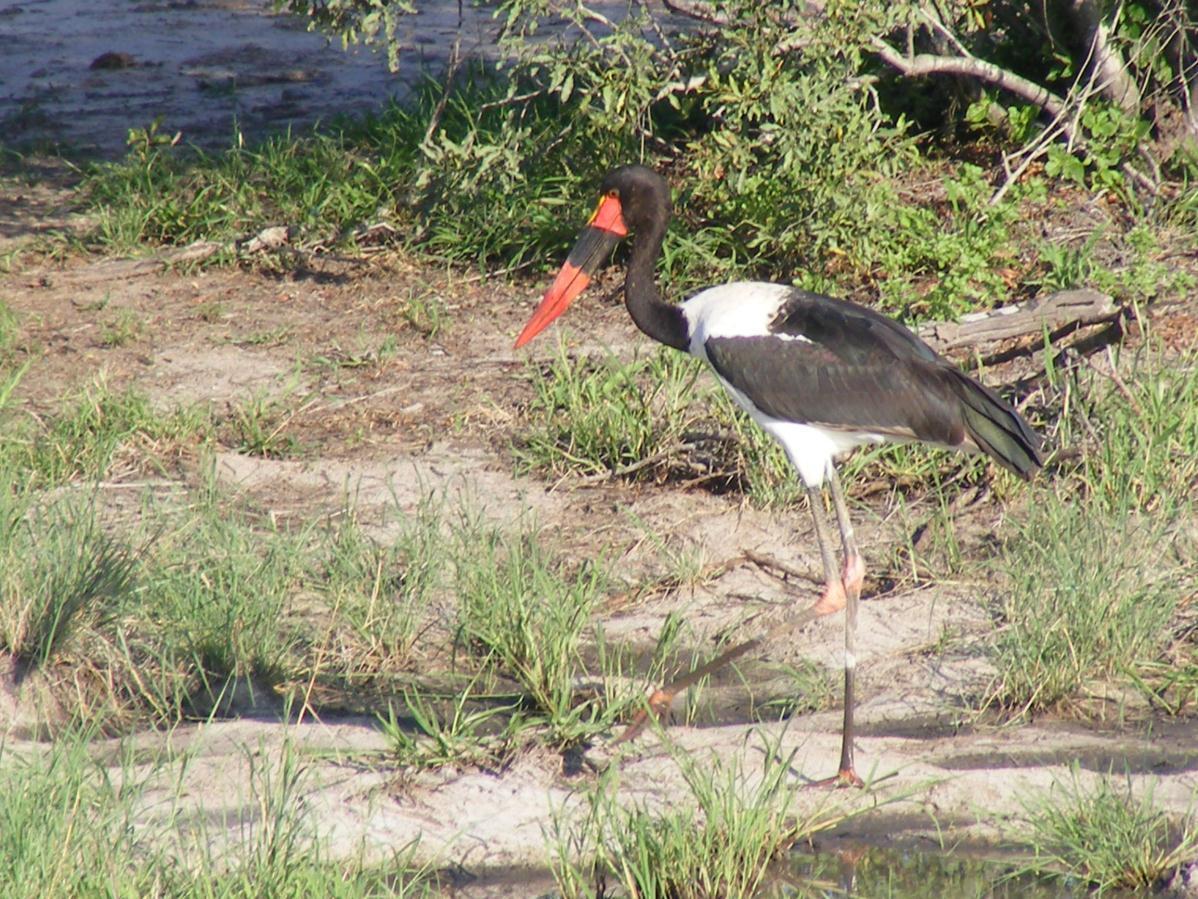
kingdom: Animalia
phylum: Chordata
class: Aves
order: Ciconiiformes
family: Ciconiidae
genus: Ephippiorhynchus
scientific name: Ephippiorhynchus senegalensis
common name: Saddle-billed stork
